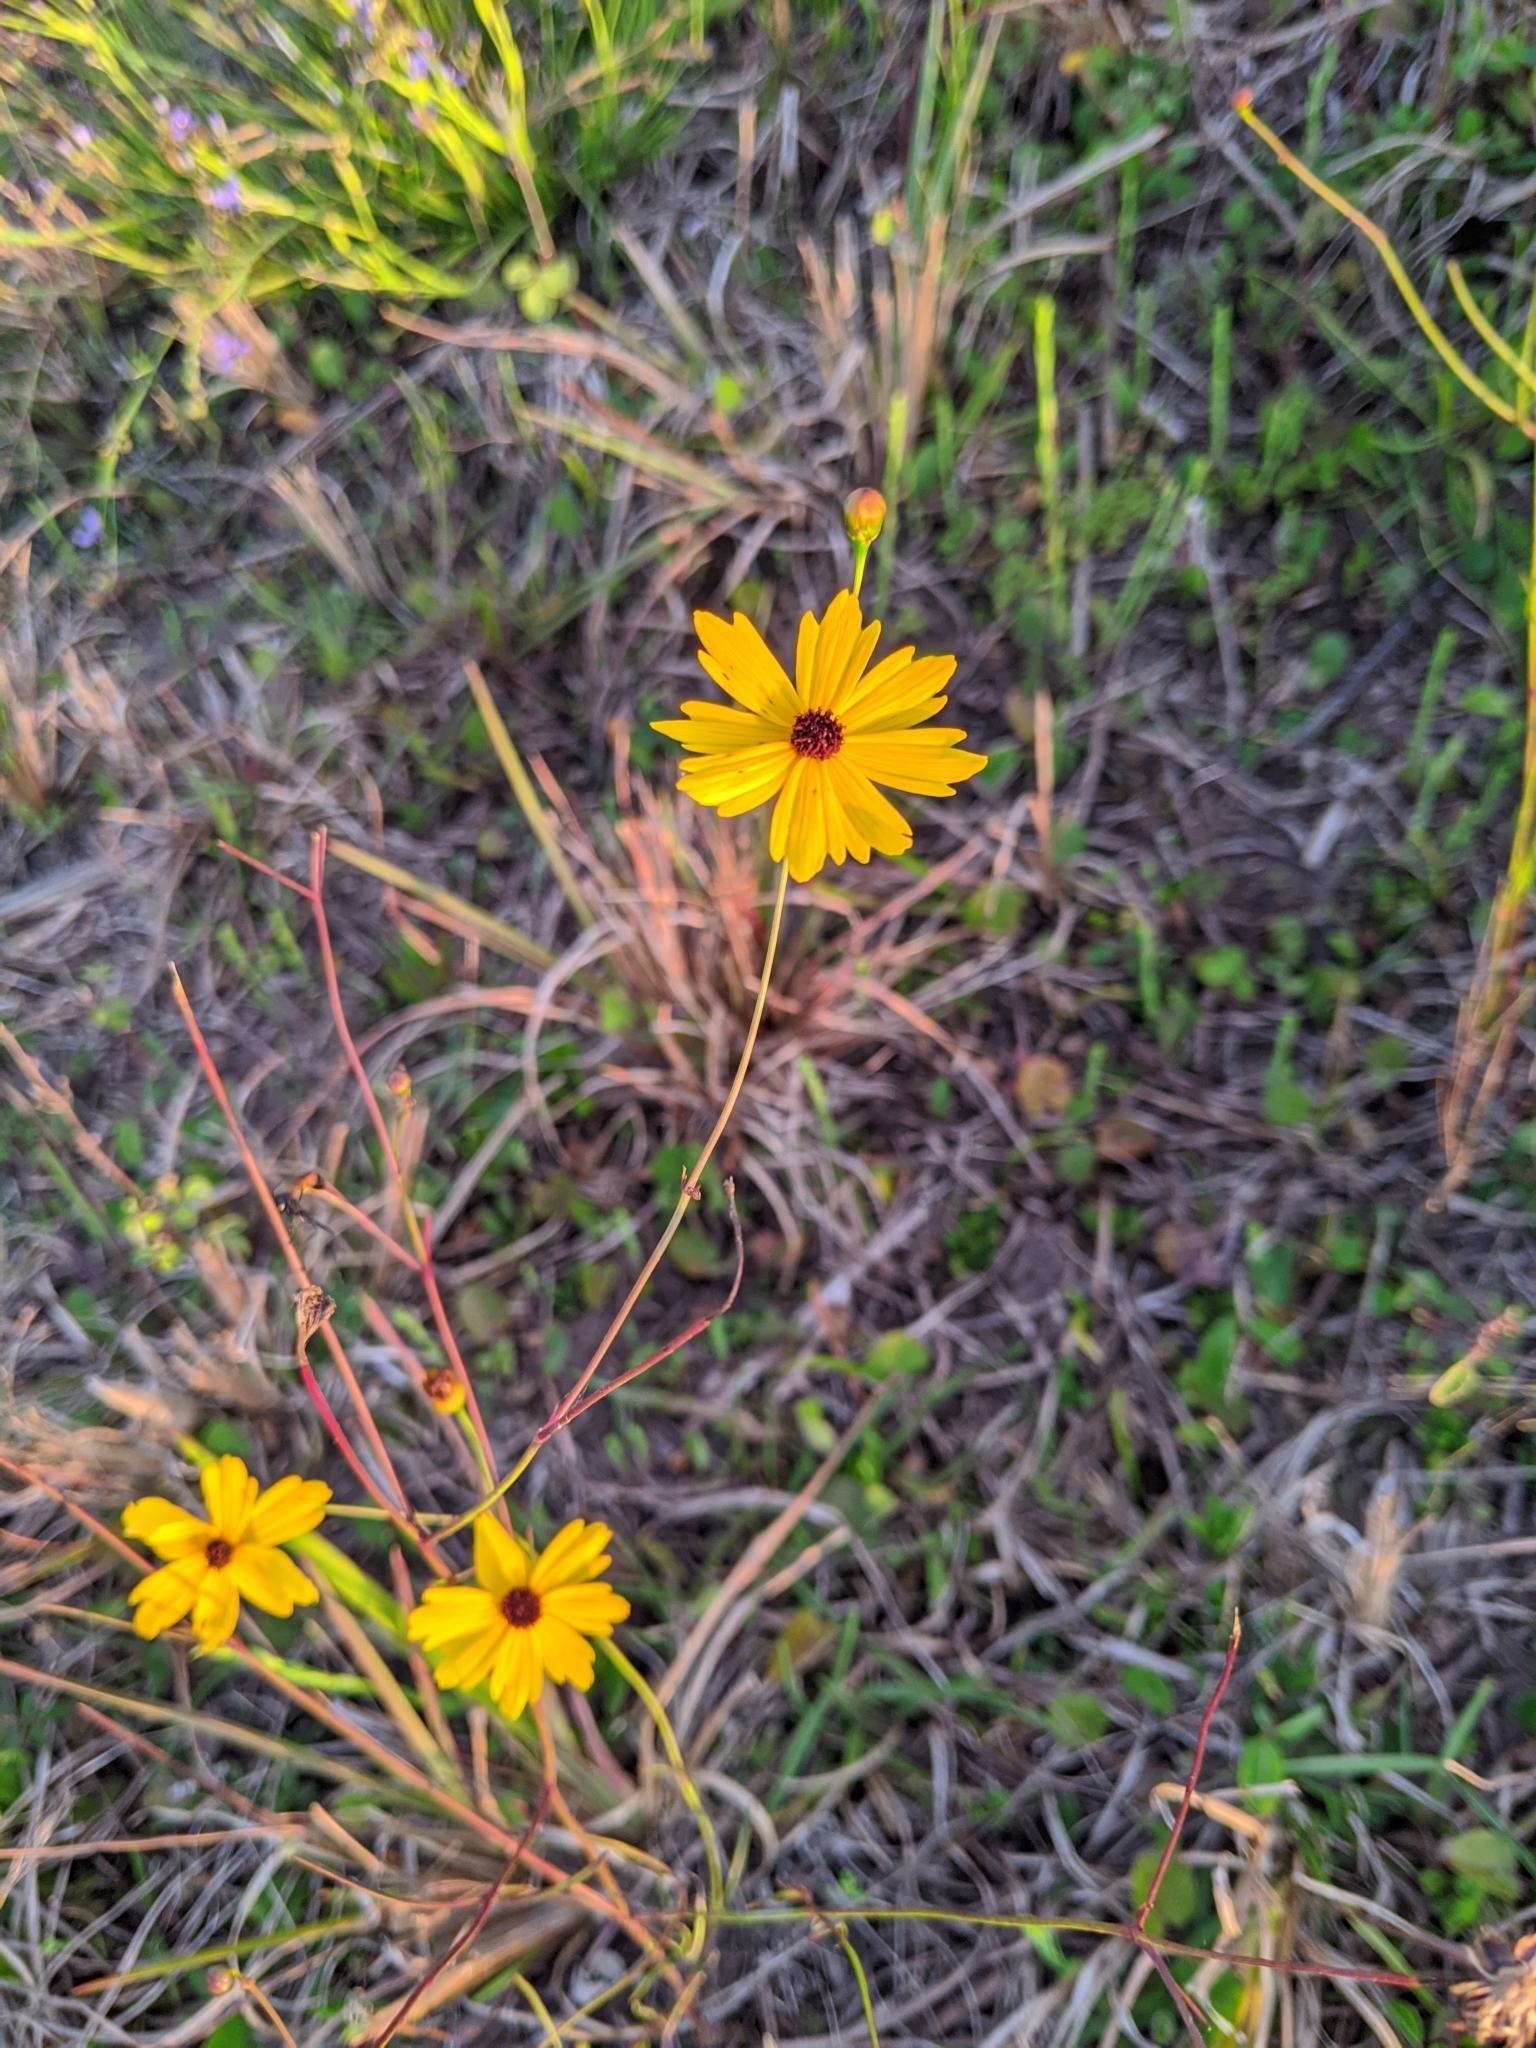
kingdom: Plantae
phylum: Tracheophyta
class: Magnoliopsida
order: Asterales
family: Asteraceae
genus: Coreopsis
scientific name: Coreopsis leavenworthii
